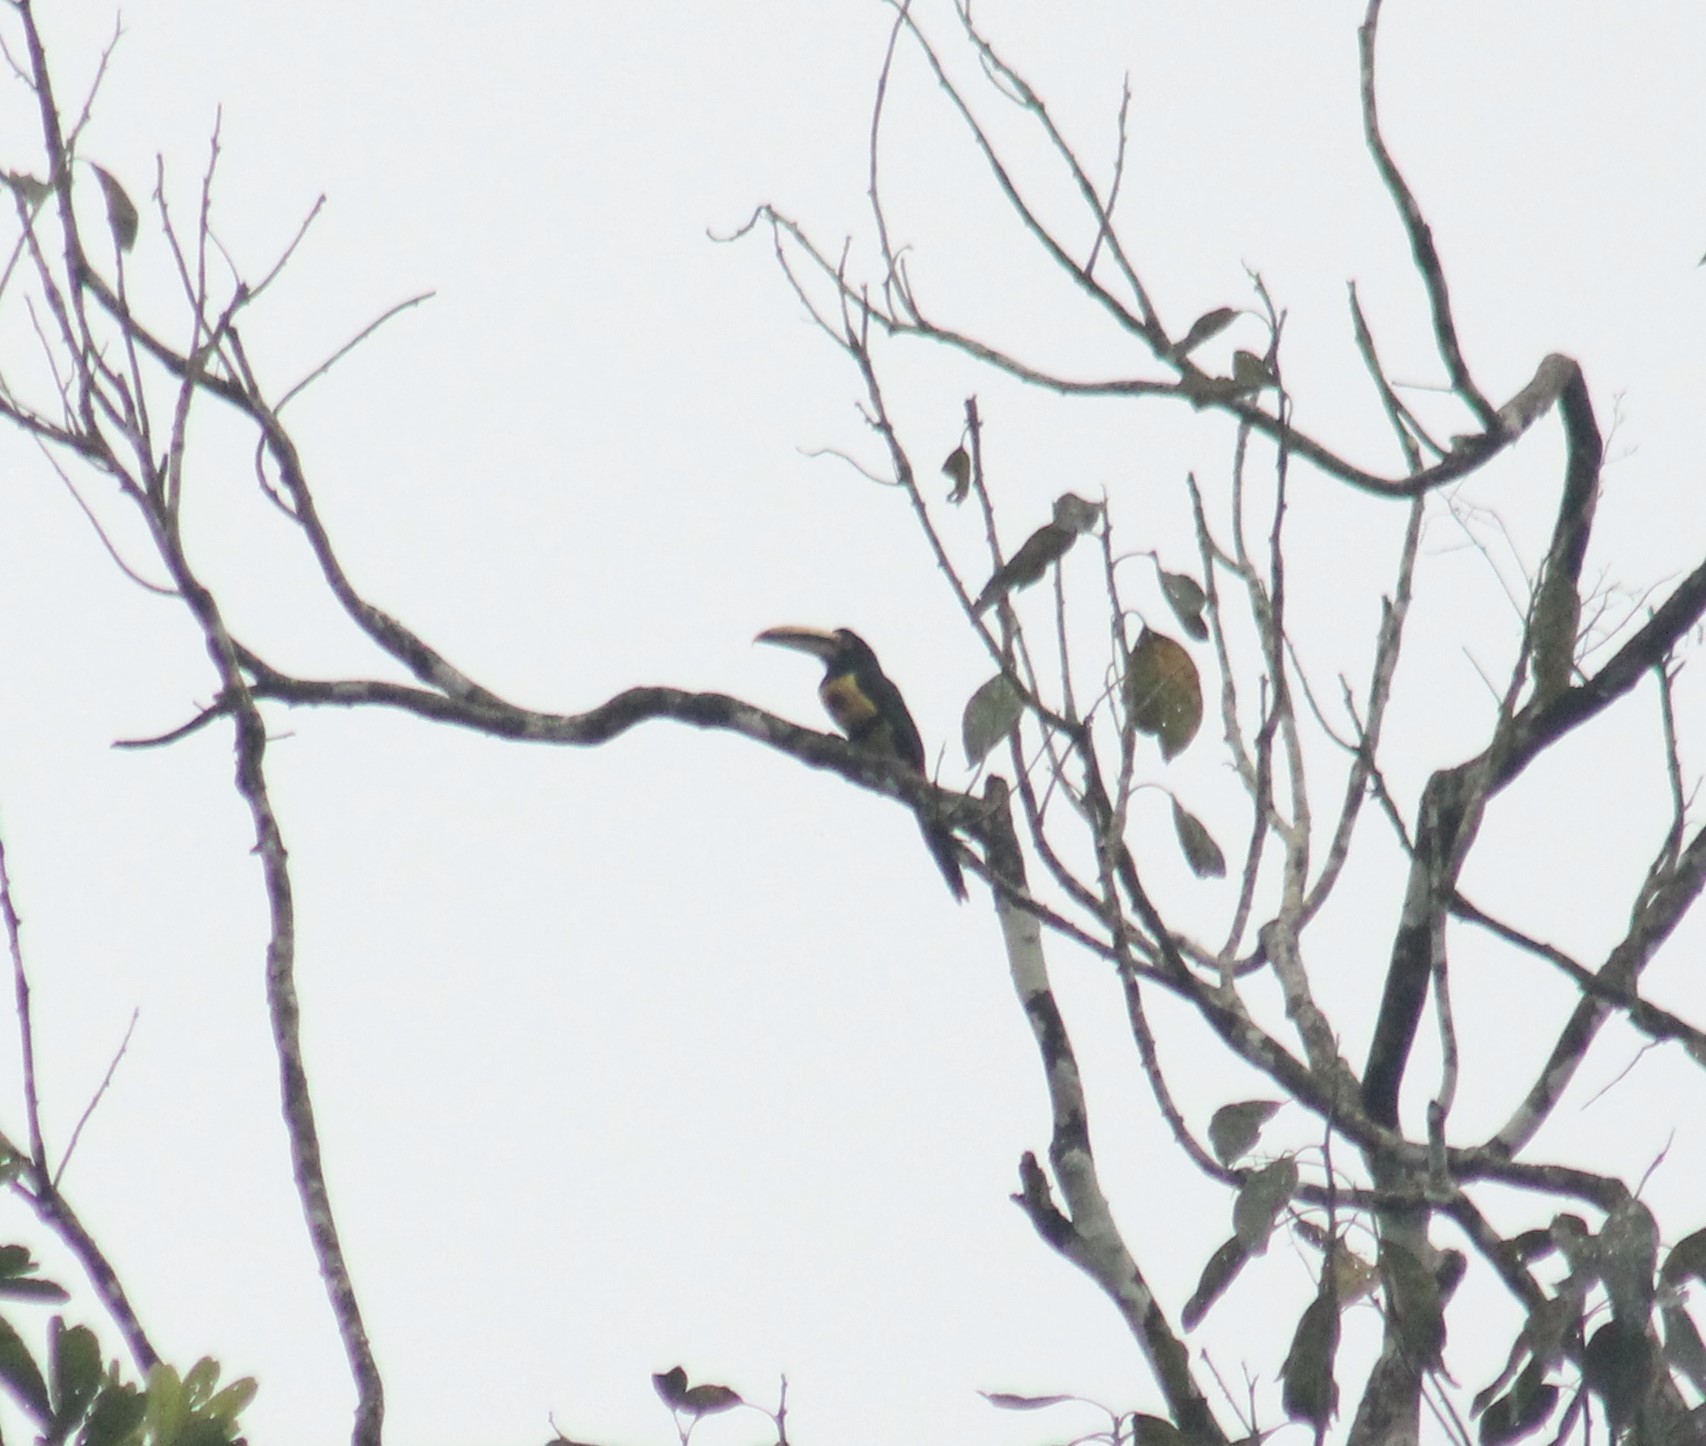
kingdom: Animalia
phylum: Chordata
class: Aves
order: Piciformes
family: Ramphastidae
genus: Pteroglossus
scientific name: Pteroglossus torquatus
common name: Collared aracari
